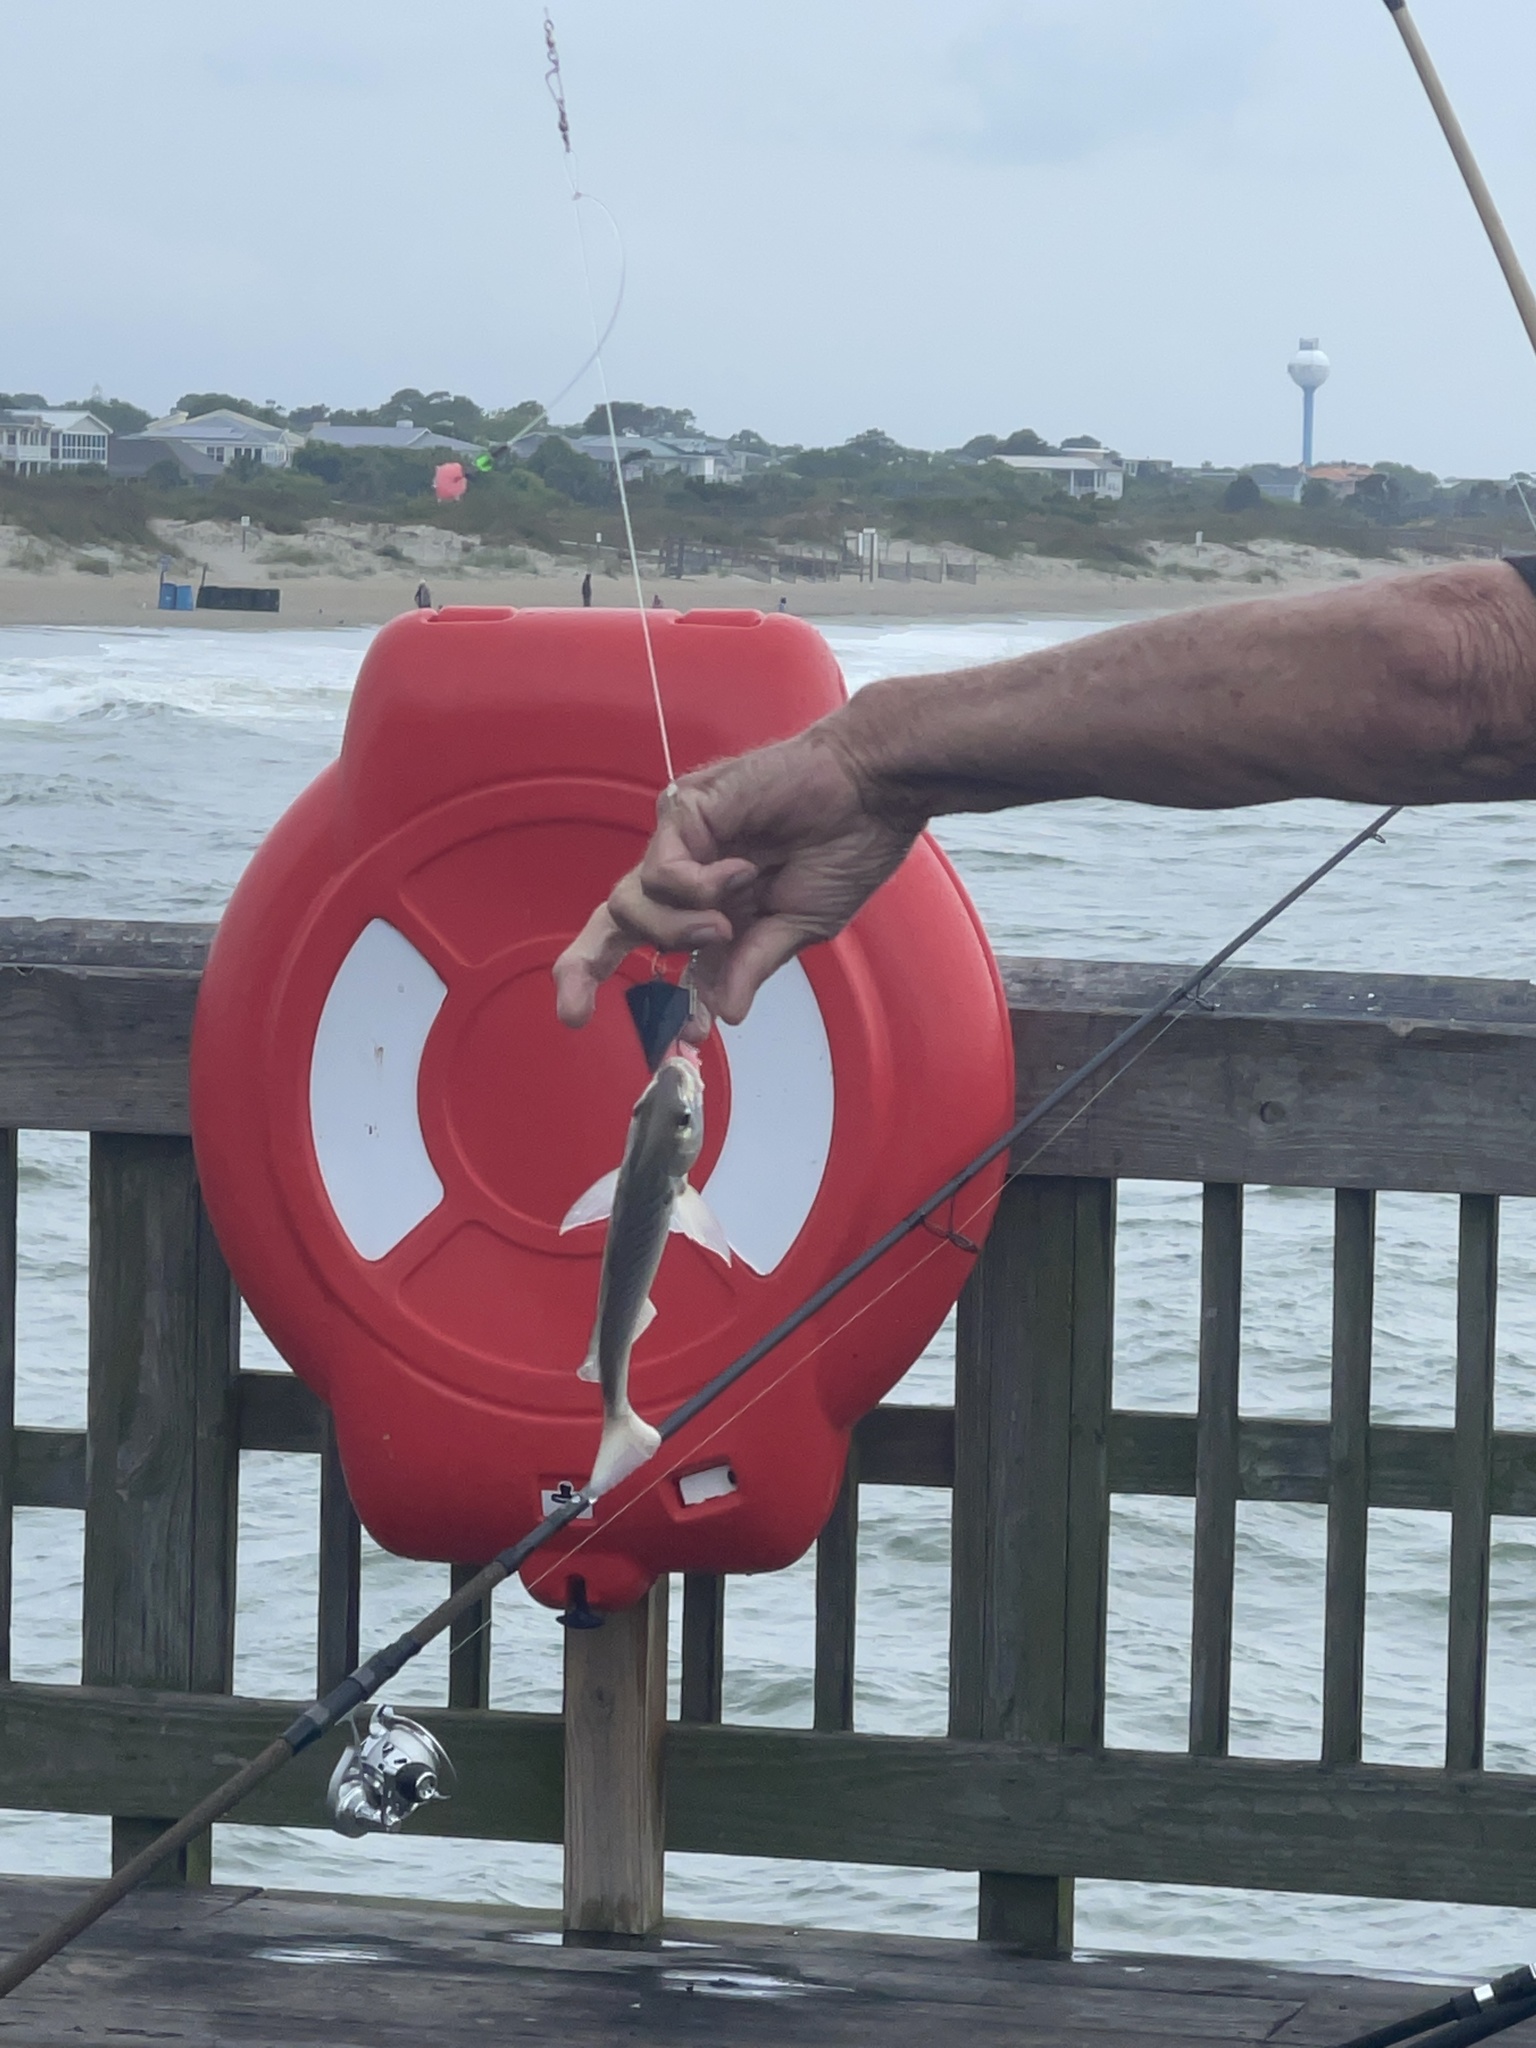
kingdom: Animalia
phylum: Chordata
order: Perciformes
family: Sciaenidae
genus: Leiostomus
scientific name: Leiostomus xanthurus
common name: Spot
